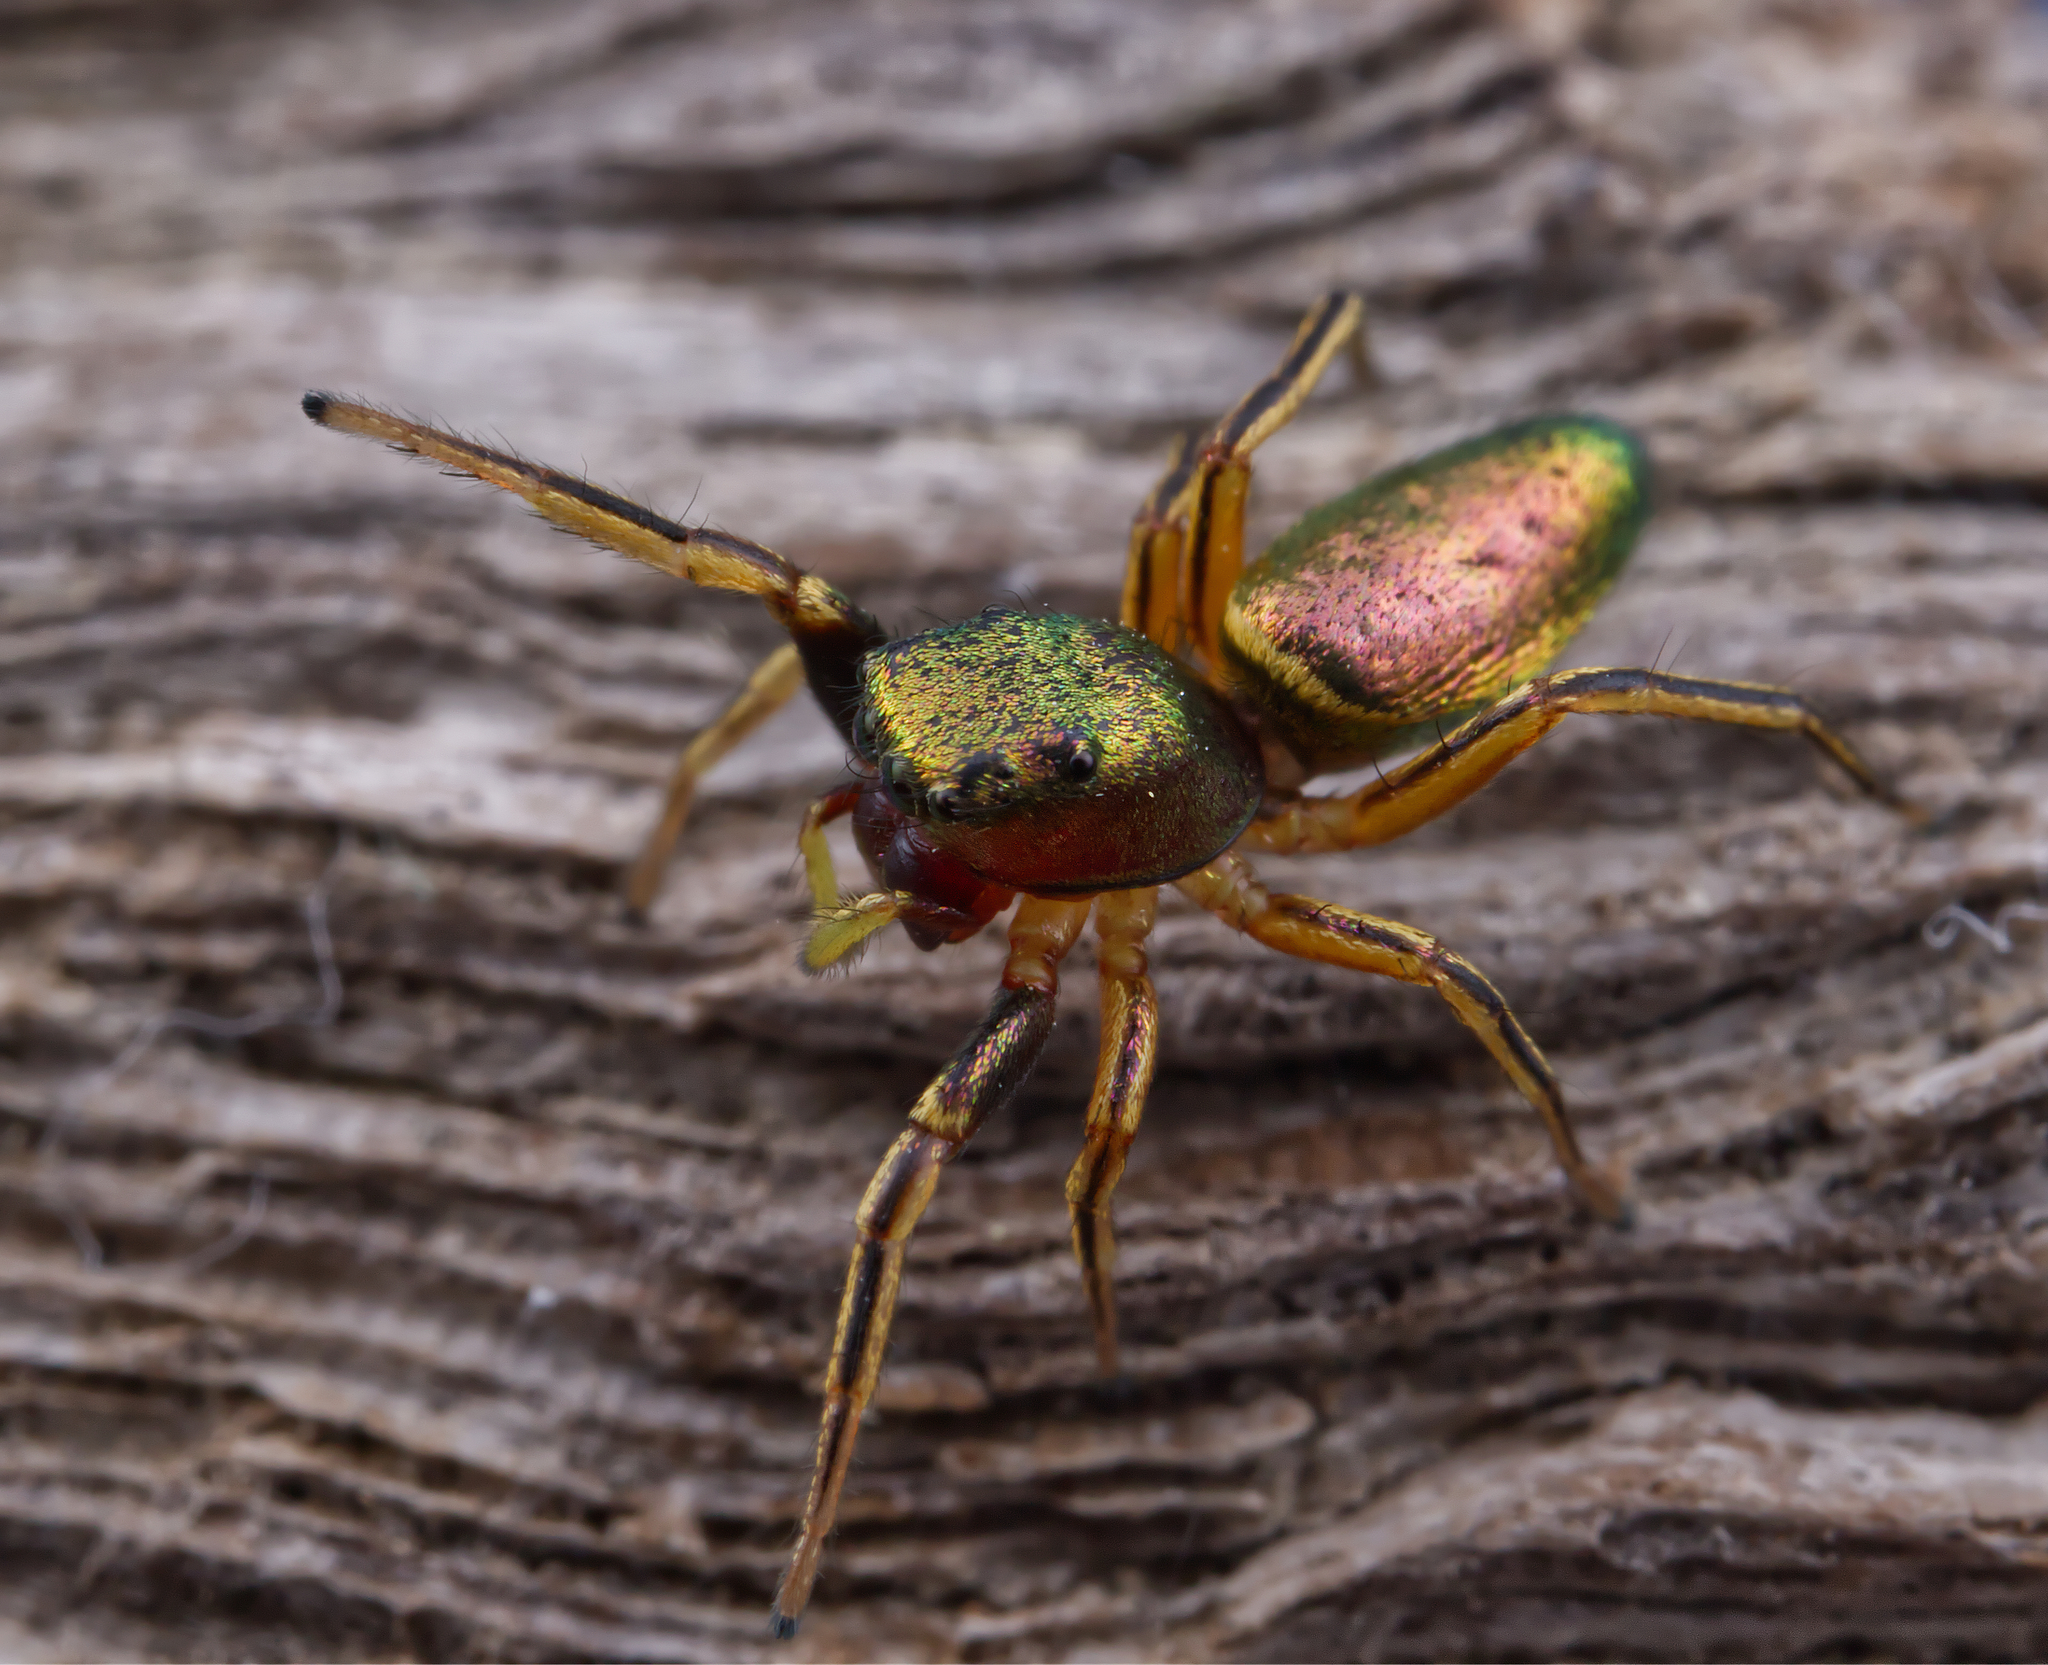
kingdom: Animalia
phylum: Arthropoda
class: Arachnida
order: Araneae
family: Salticidae
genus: Tutelina
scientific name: Tutelina elegans
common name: Thin-spined jumping spider
